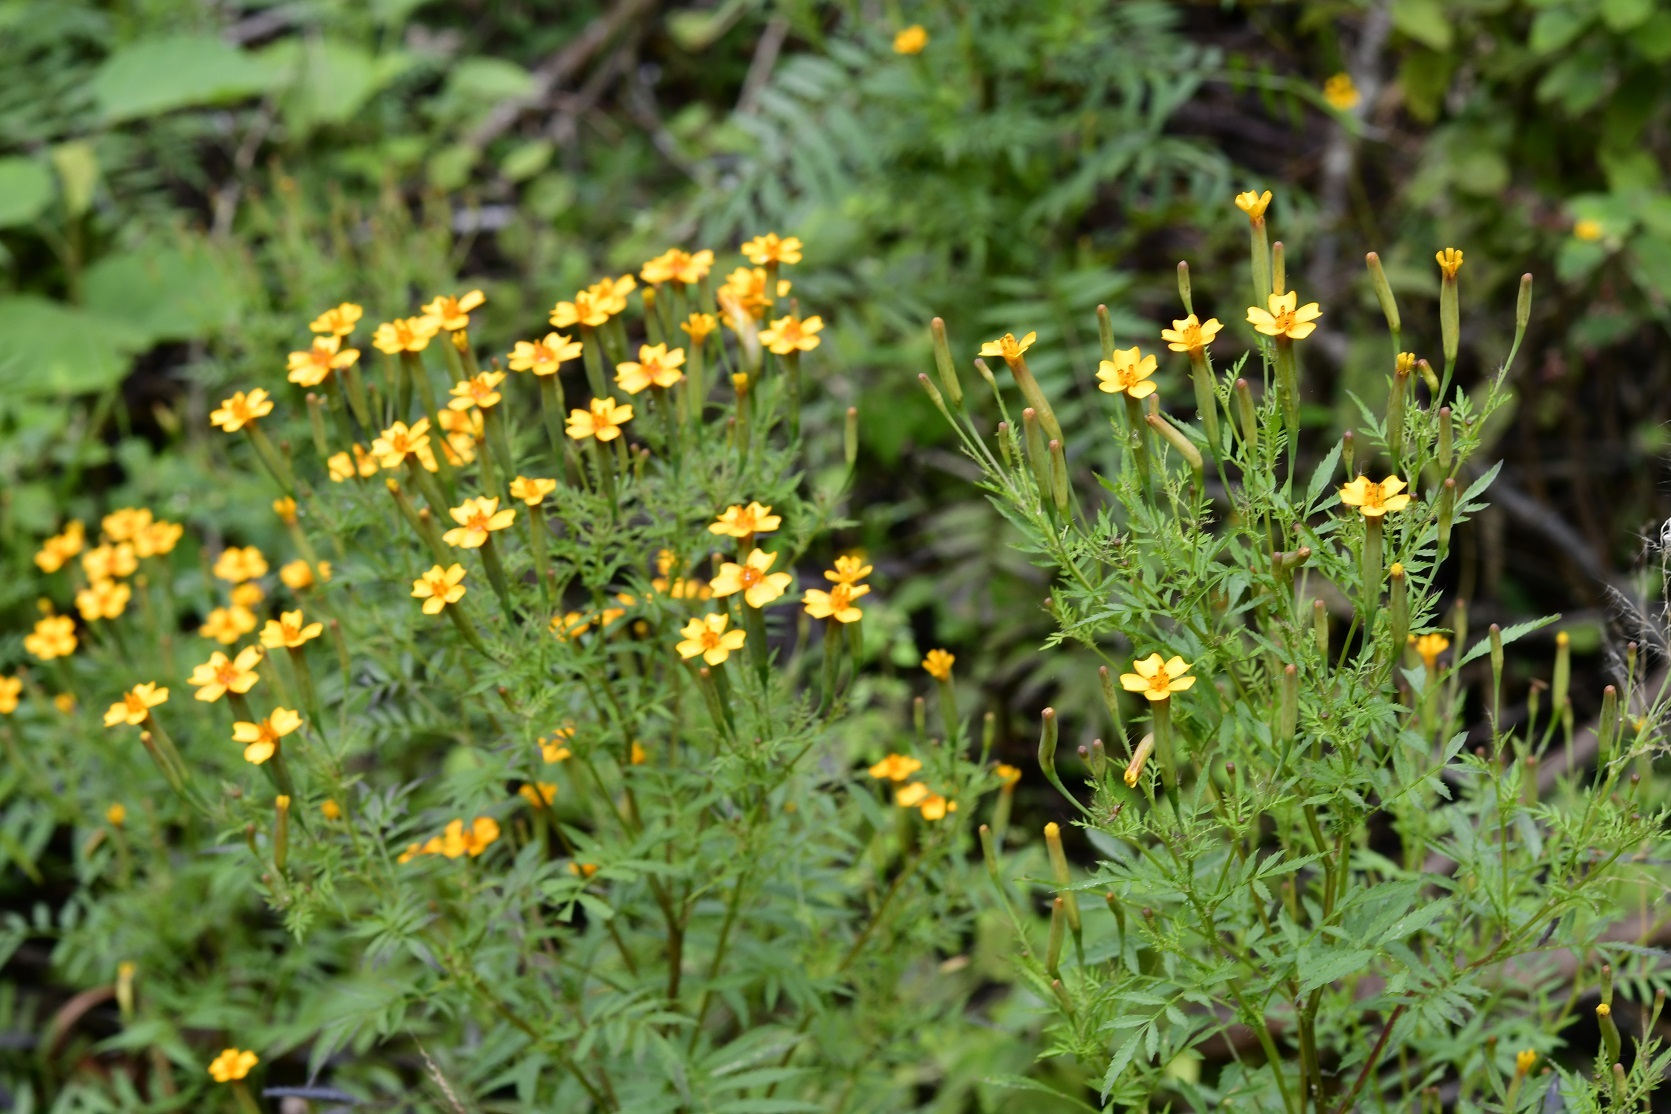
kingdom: Plantae
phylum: Tracheophyta
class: Magnoliopsida
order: Asterales
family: Asteraceae
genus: Tagetes
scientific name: Tagetes tenuifolia
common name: Signet marigold
